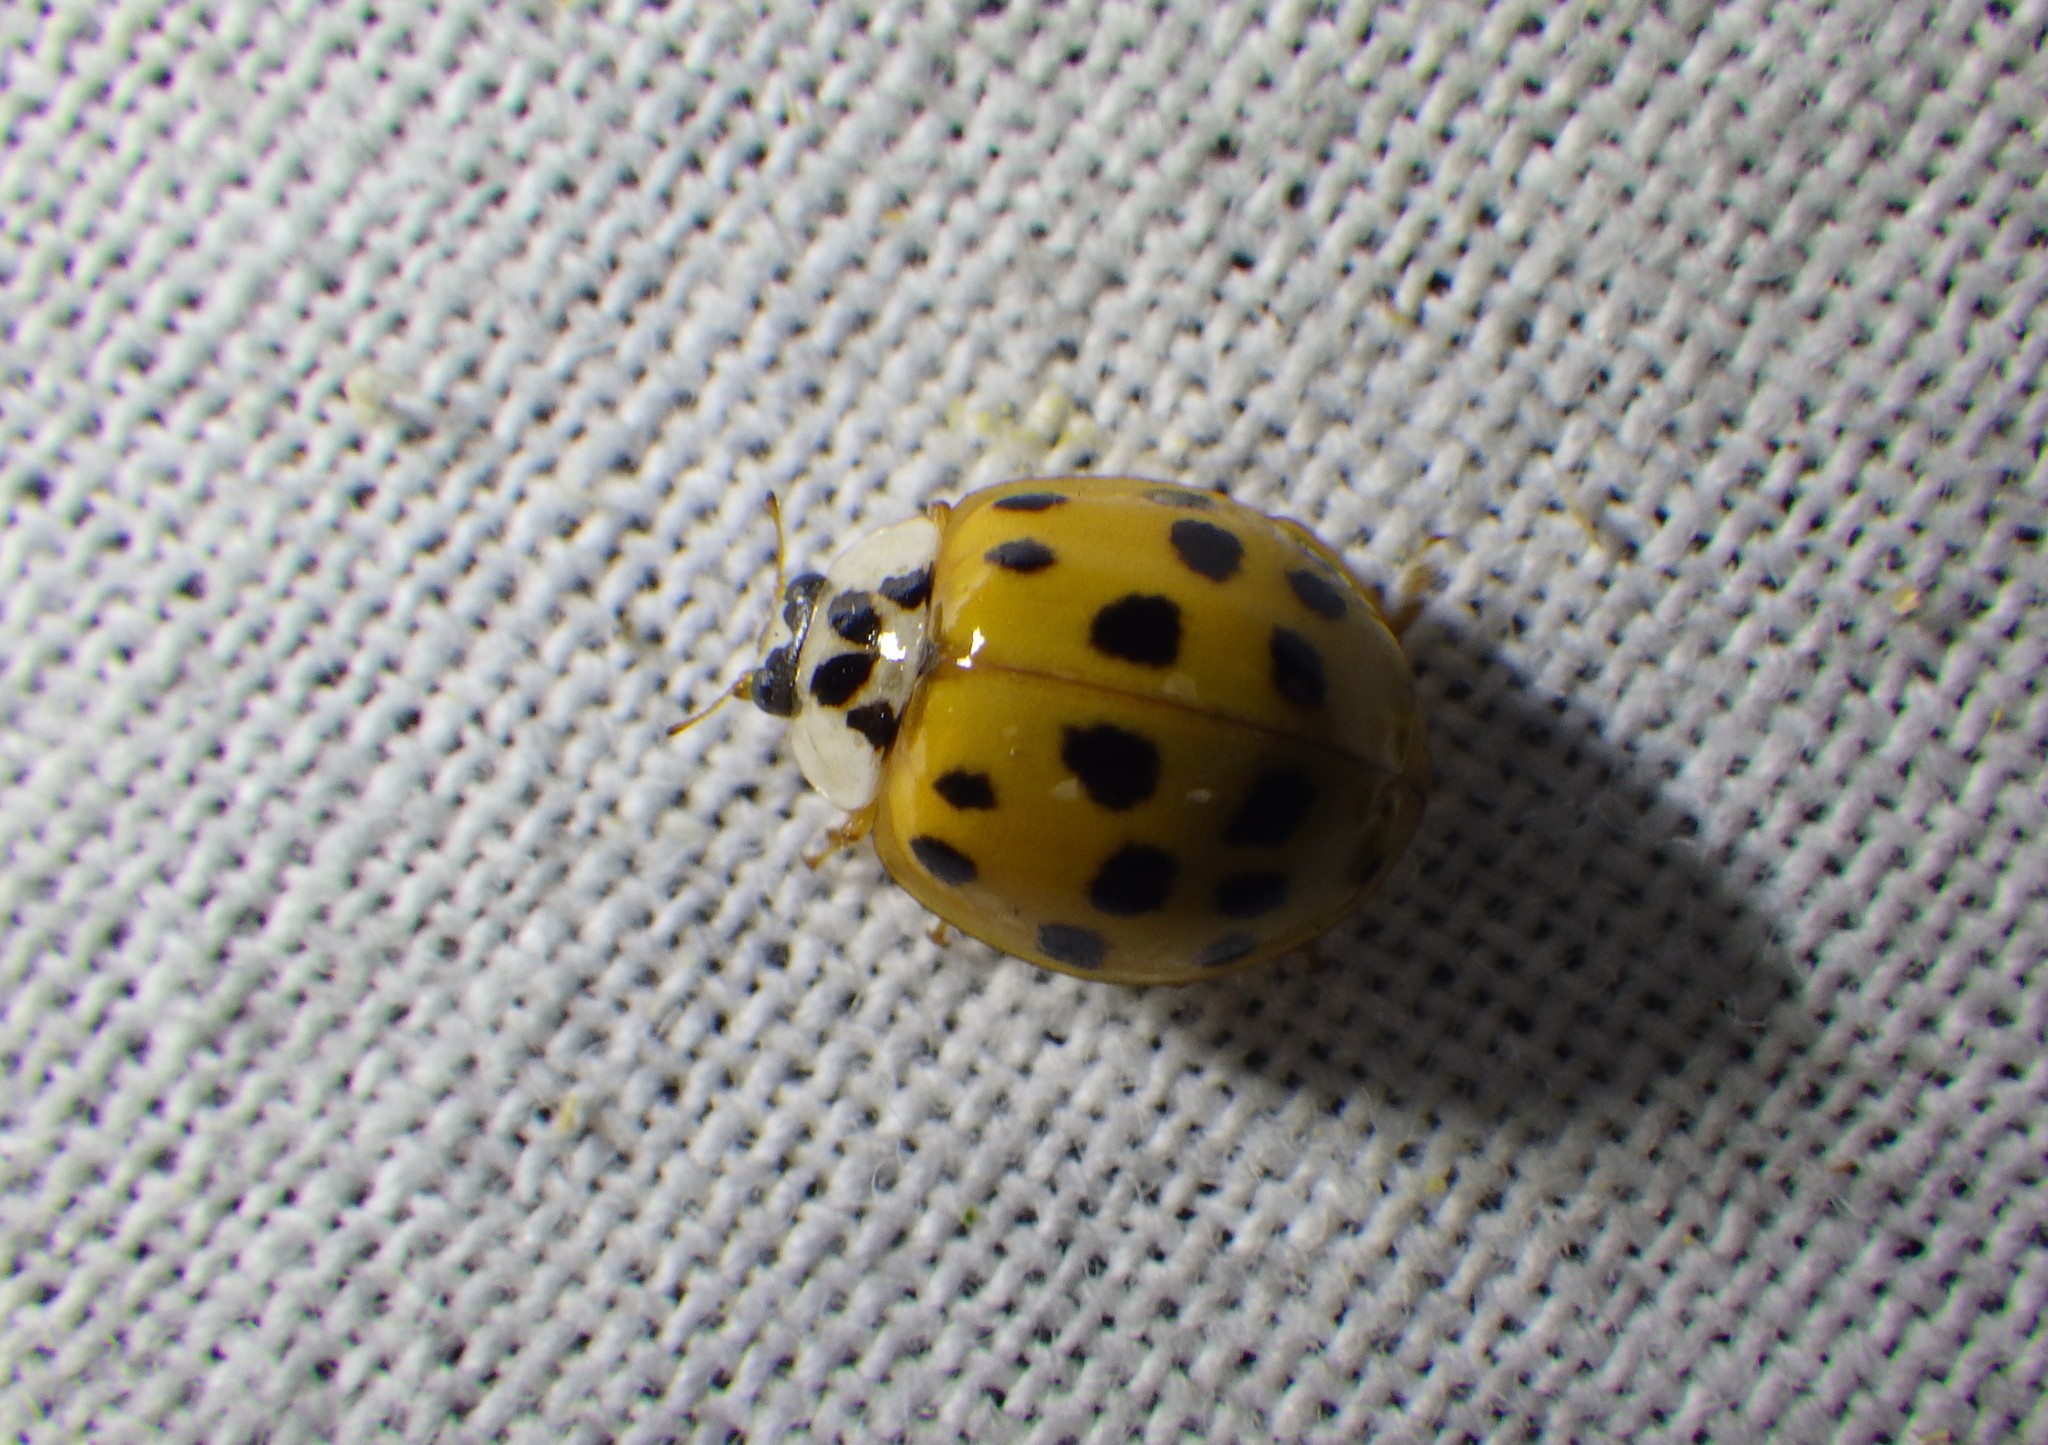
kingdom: Animalia
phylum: Arthropoda
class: Insecta
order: Coleoptera
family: Coccinellidae
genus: Harmonia
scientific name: Harmonia axyridis
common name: Harlequin ladybird
